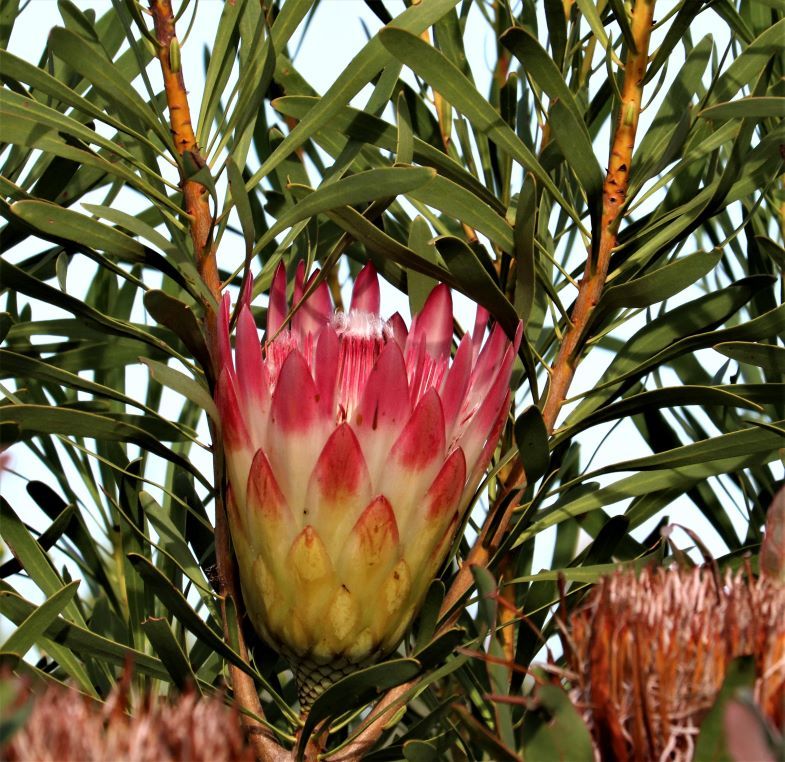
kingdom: Plantae
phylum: Tracheophyta
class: Magnoliopsida
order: Proteales
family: Proteaceae
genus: Protea
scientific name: Protea repens
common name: Sugarbush
